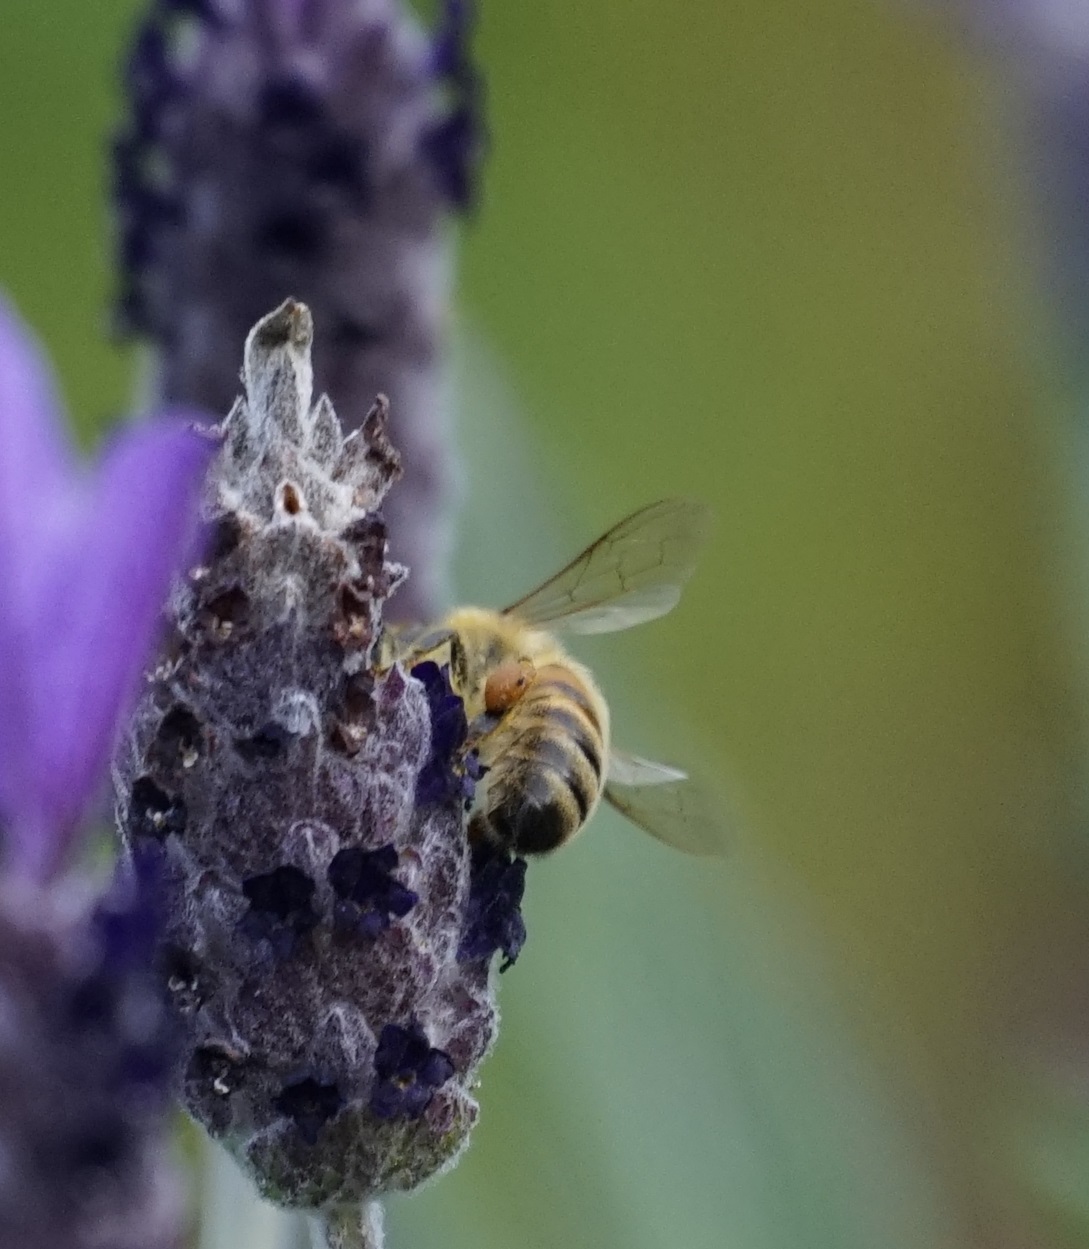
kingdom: Animalia
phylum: Arthropoda
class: Insecta
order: Hymenoptera
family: Apidae
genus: Apis
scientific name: Apis mellifera
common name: Honey bee
